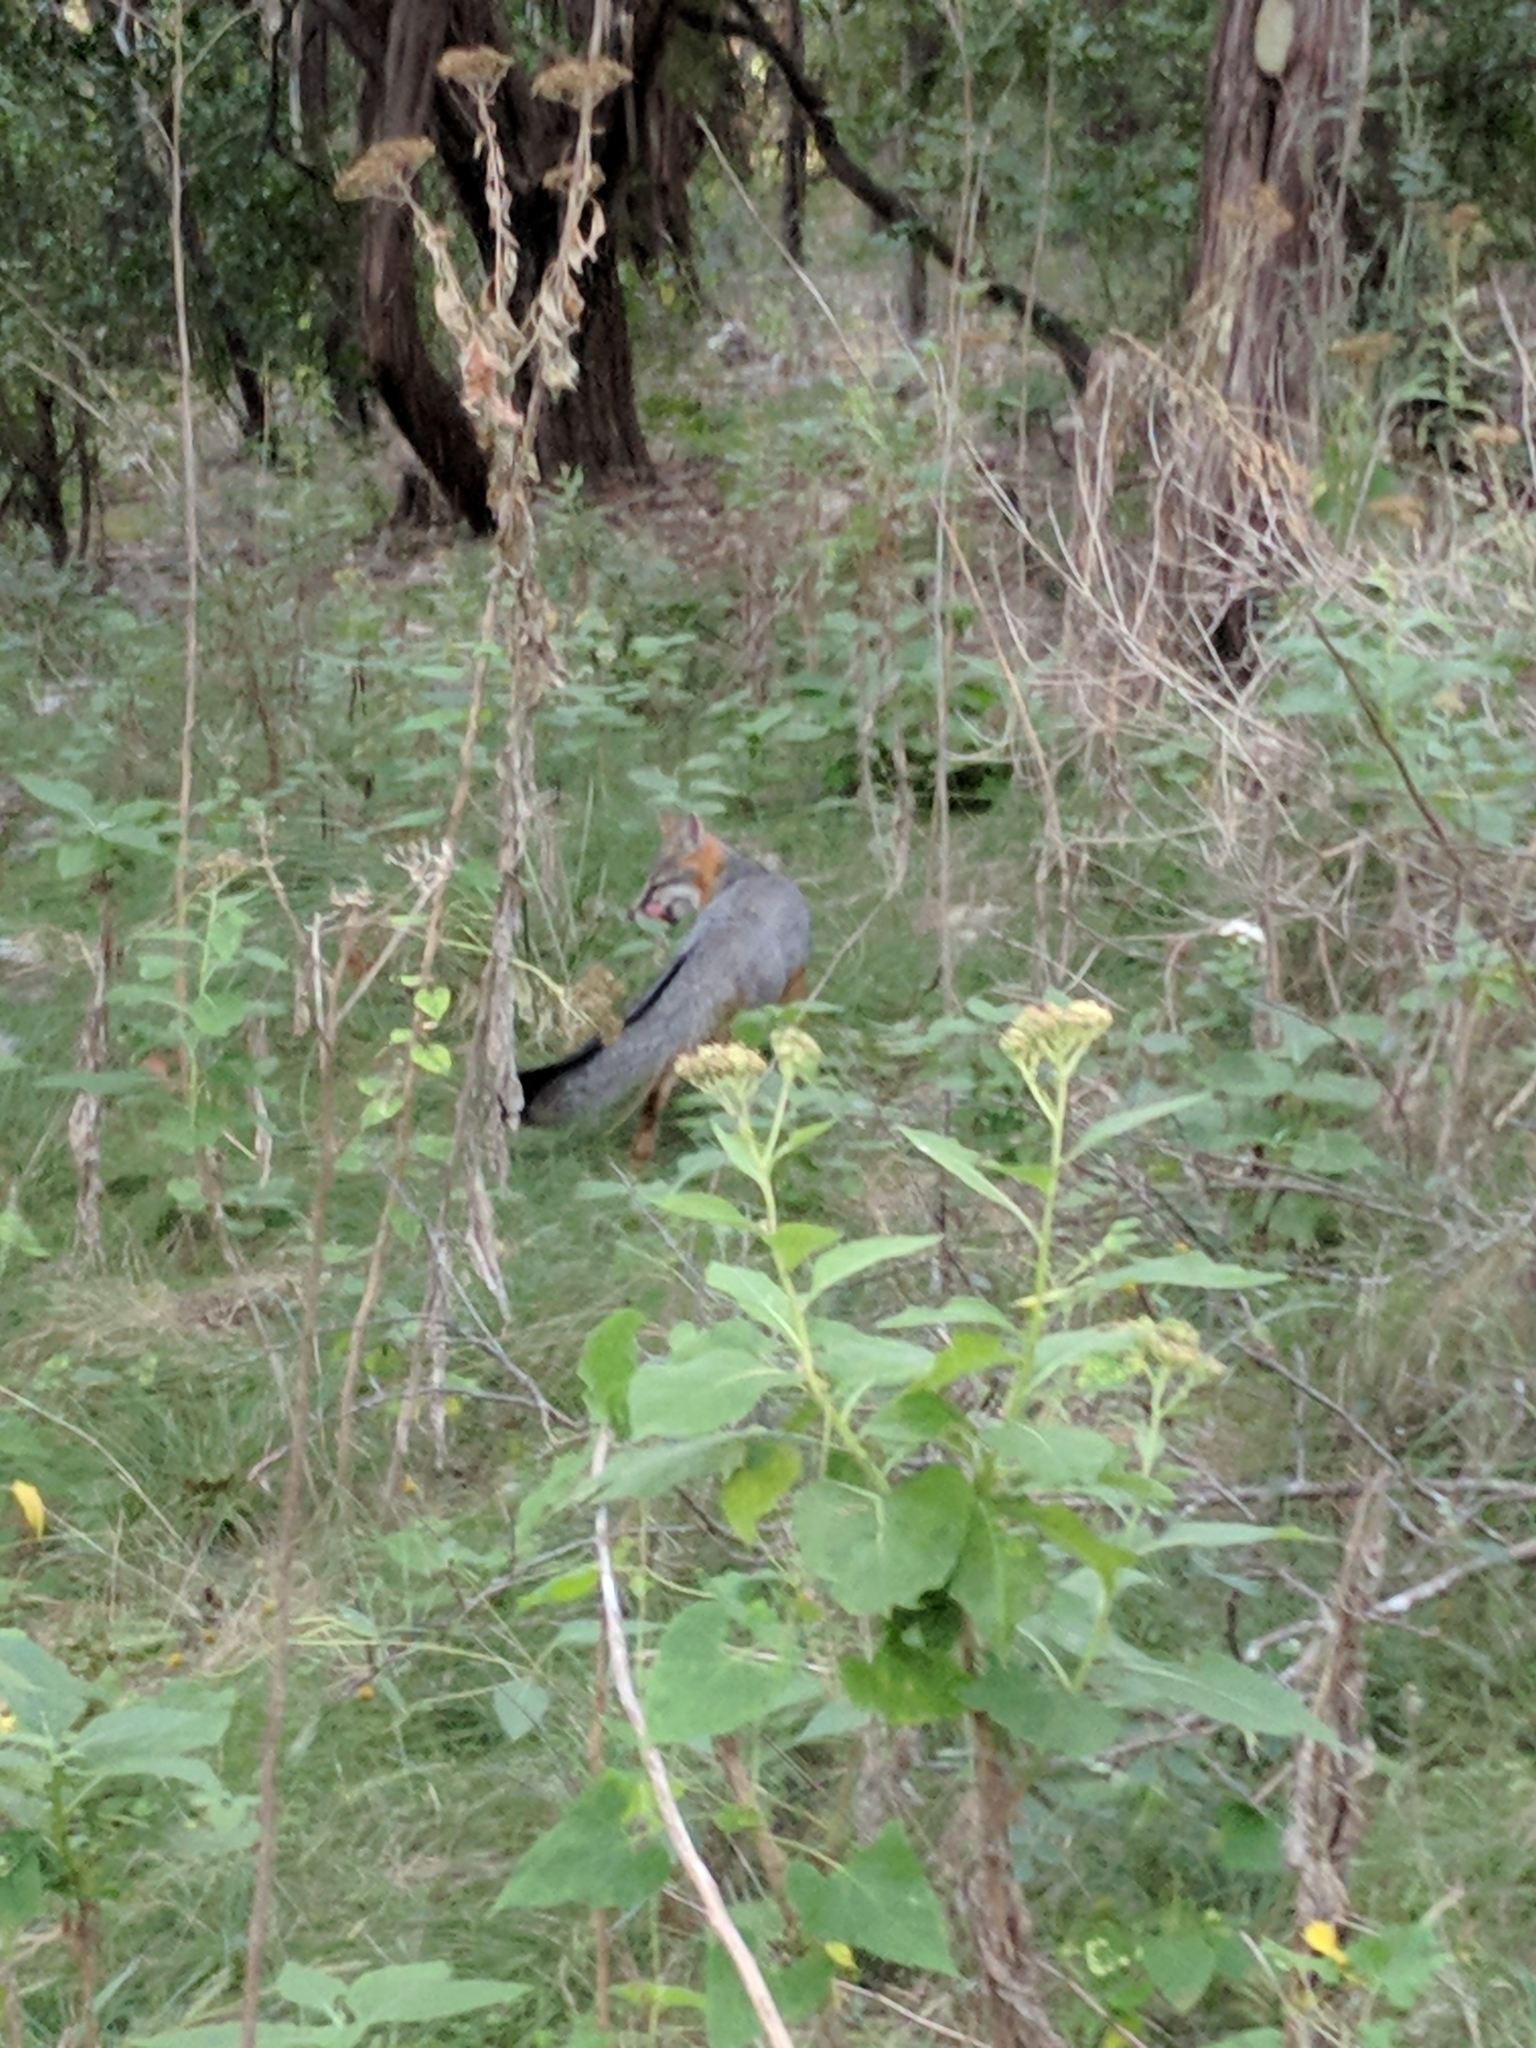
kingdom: Animalia
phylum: Chordata
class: Mammalia
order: Carnivora
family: Canidae
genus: Urocyon
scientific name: Urocyon cinereoargenteus
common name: Gray fox
